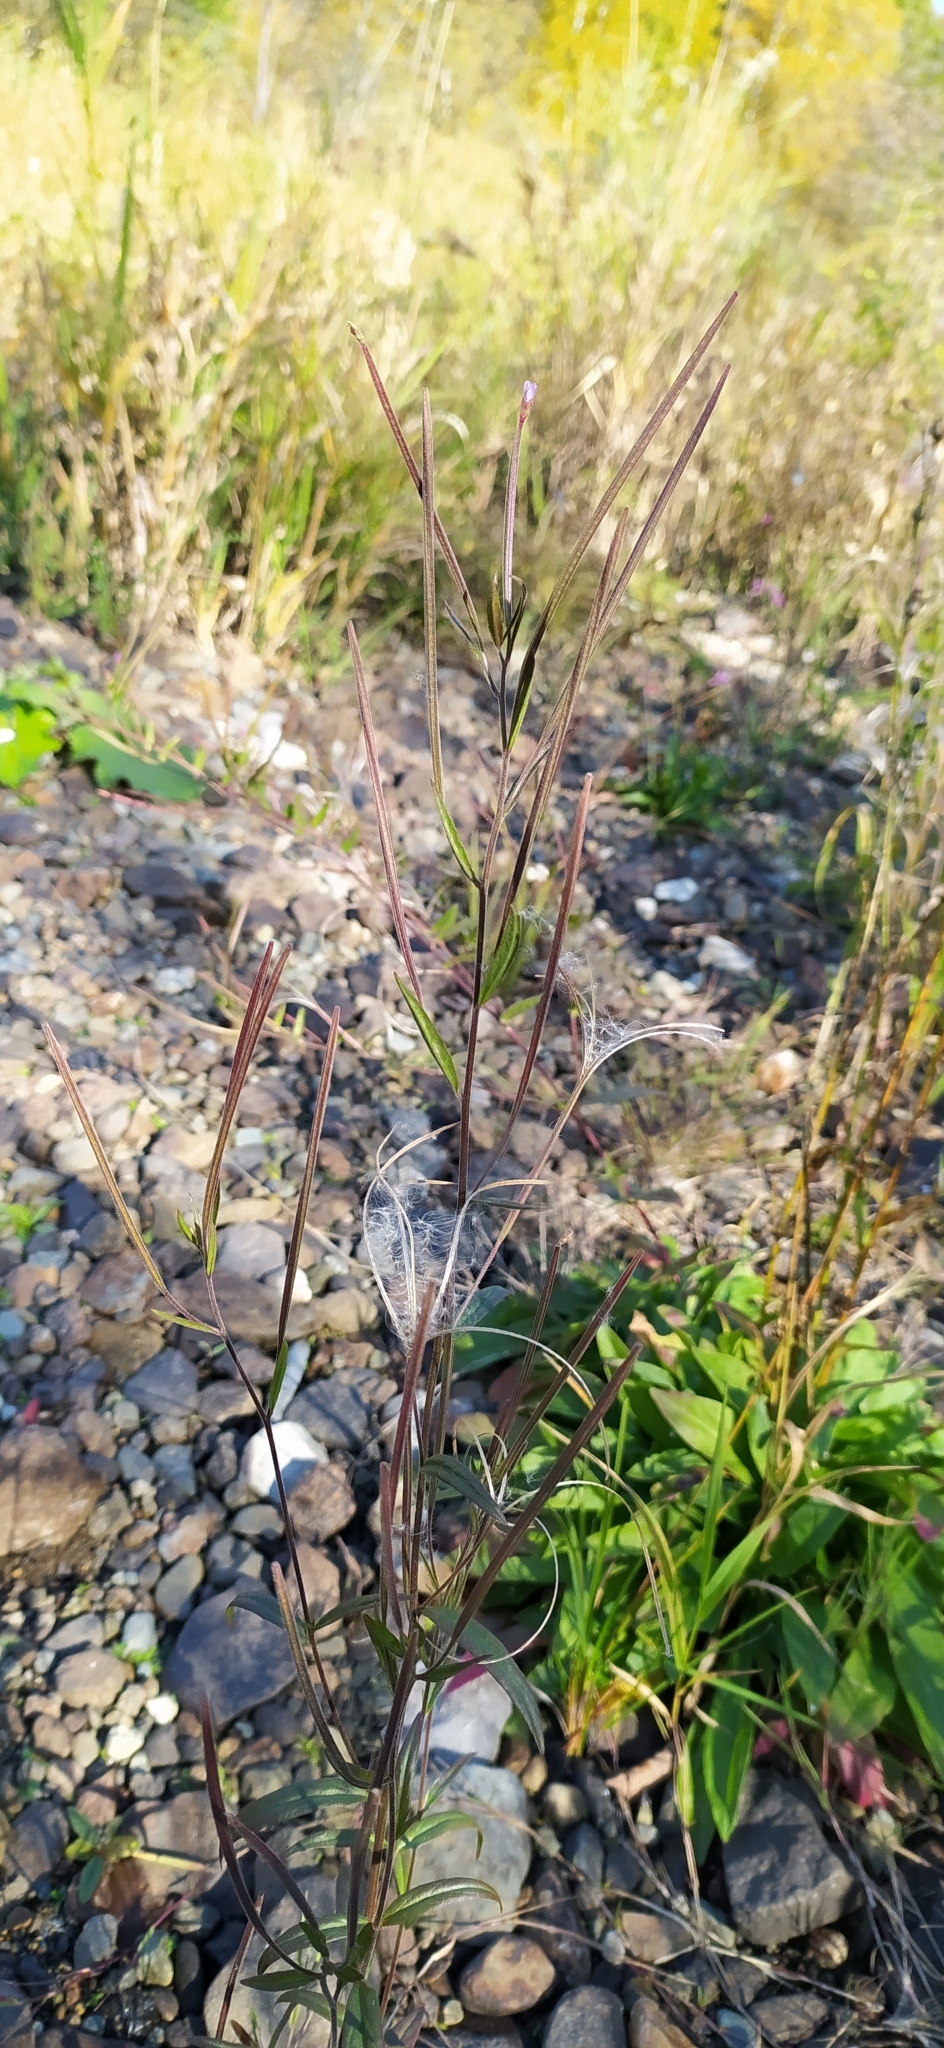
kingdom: Plantae
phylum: Tracheophyta
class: Magnoliopsida
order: Myrtales
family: Onagraceae
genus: Epilobium
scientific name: Epilobium ciliatum
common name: American willowherb
